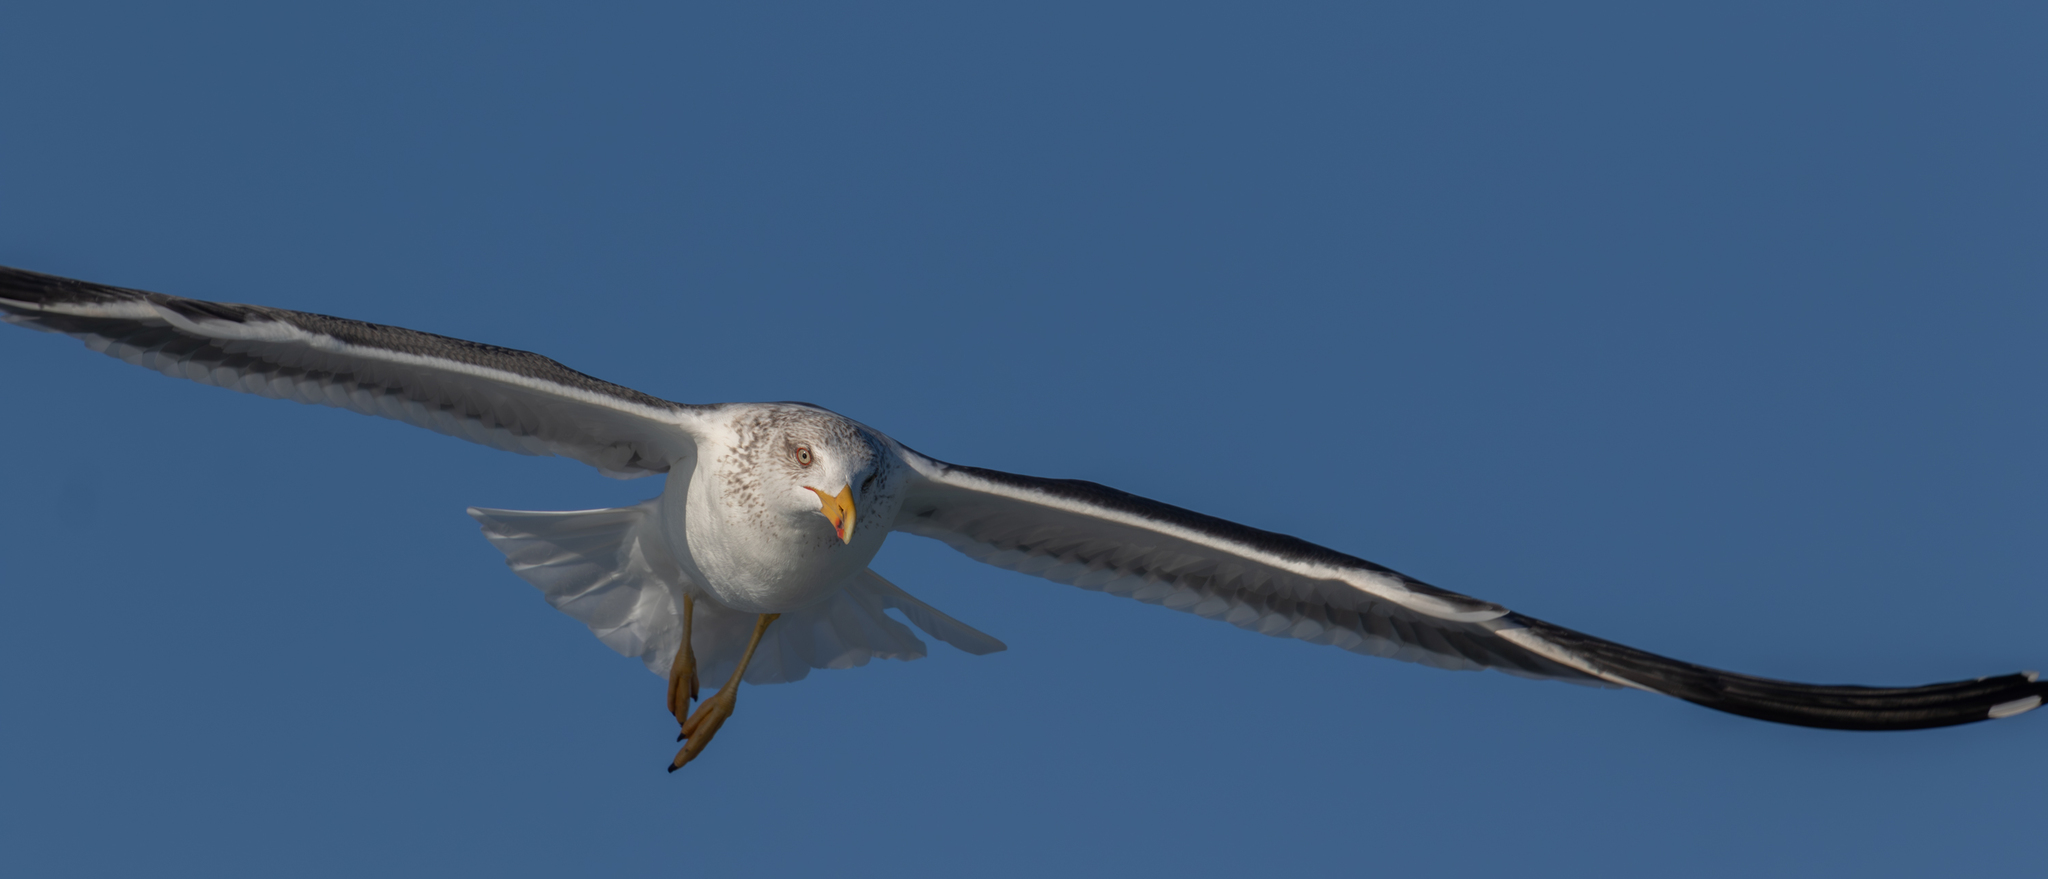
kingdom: Animalia
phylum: Chordata
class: Aves
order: Charadriiformes
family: Laridae
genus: Larus
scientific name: Larus fuscus
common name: Lesser black-backed gull
